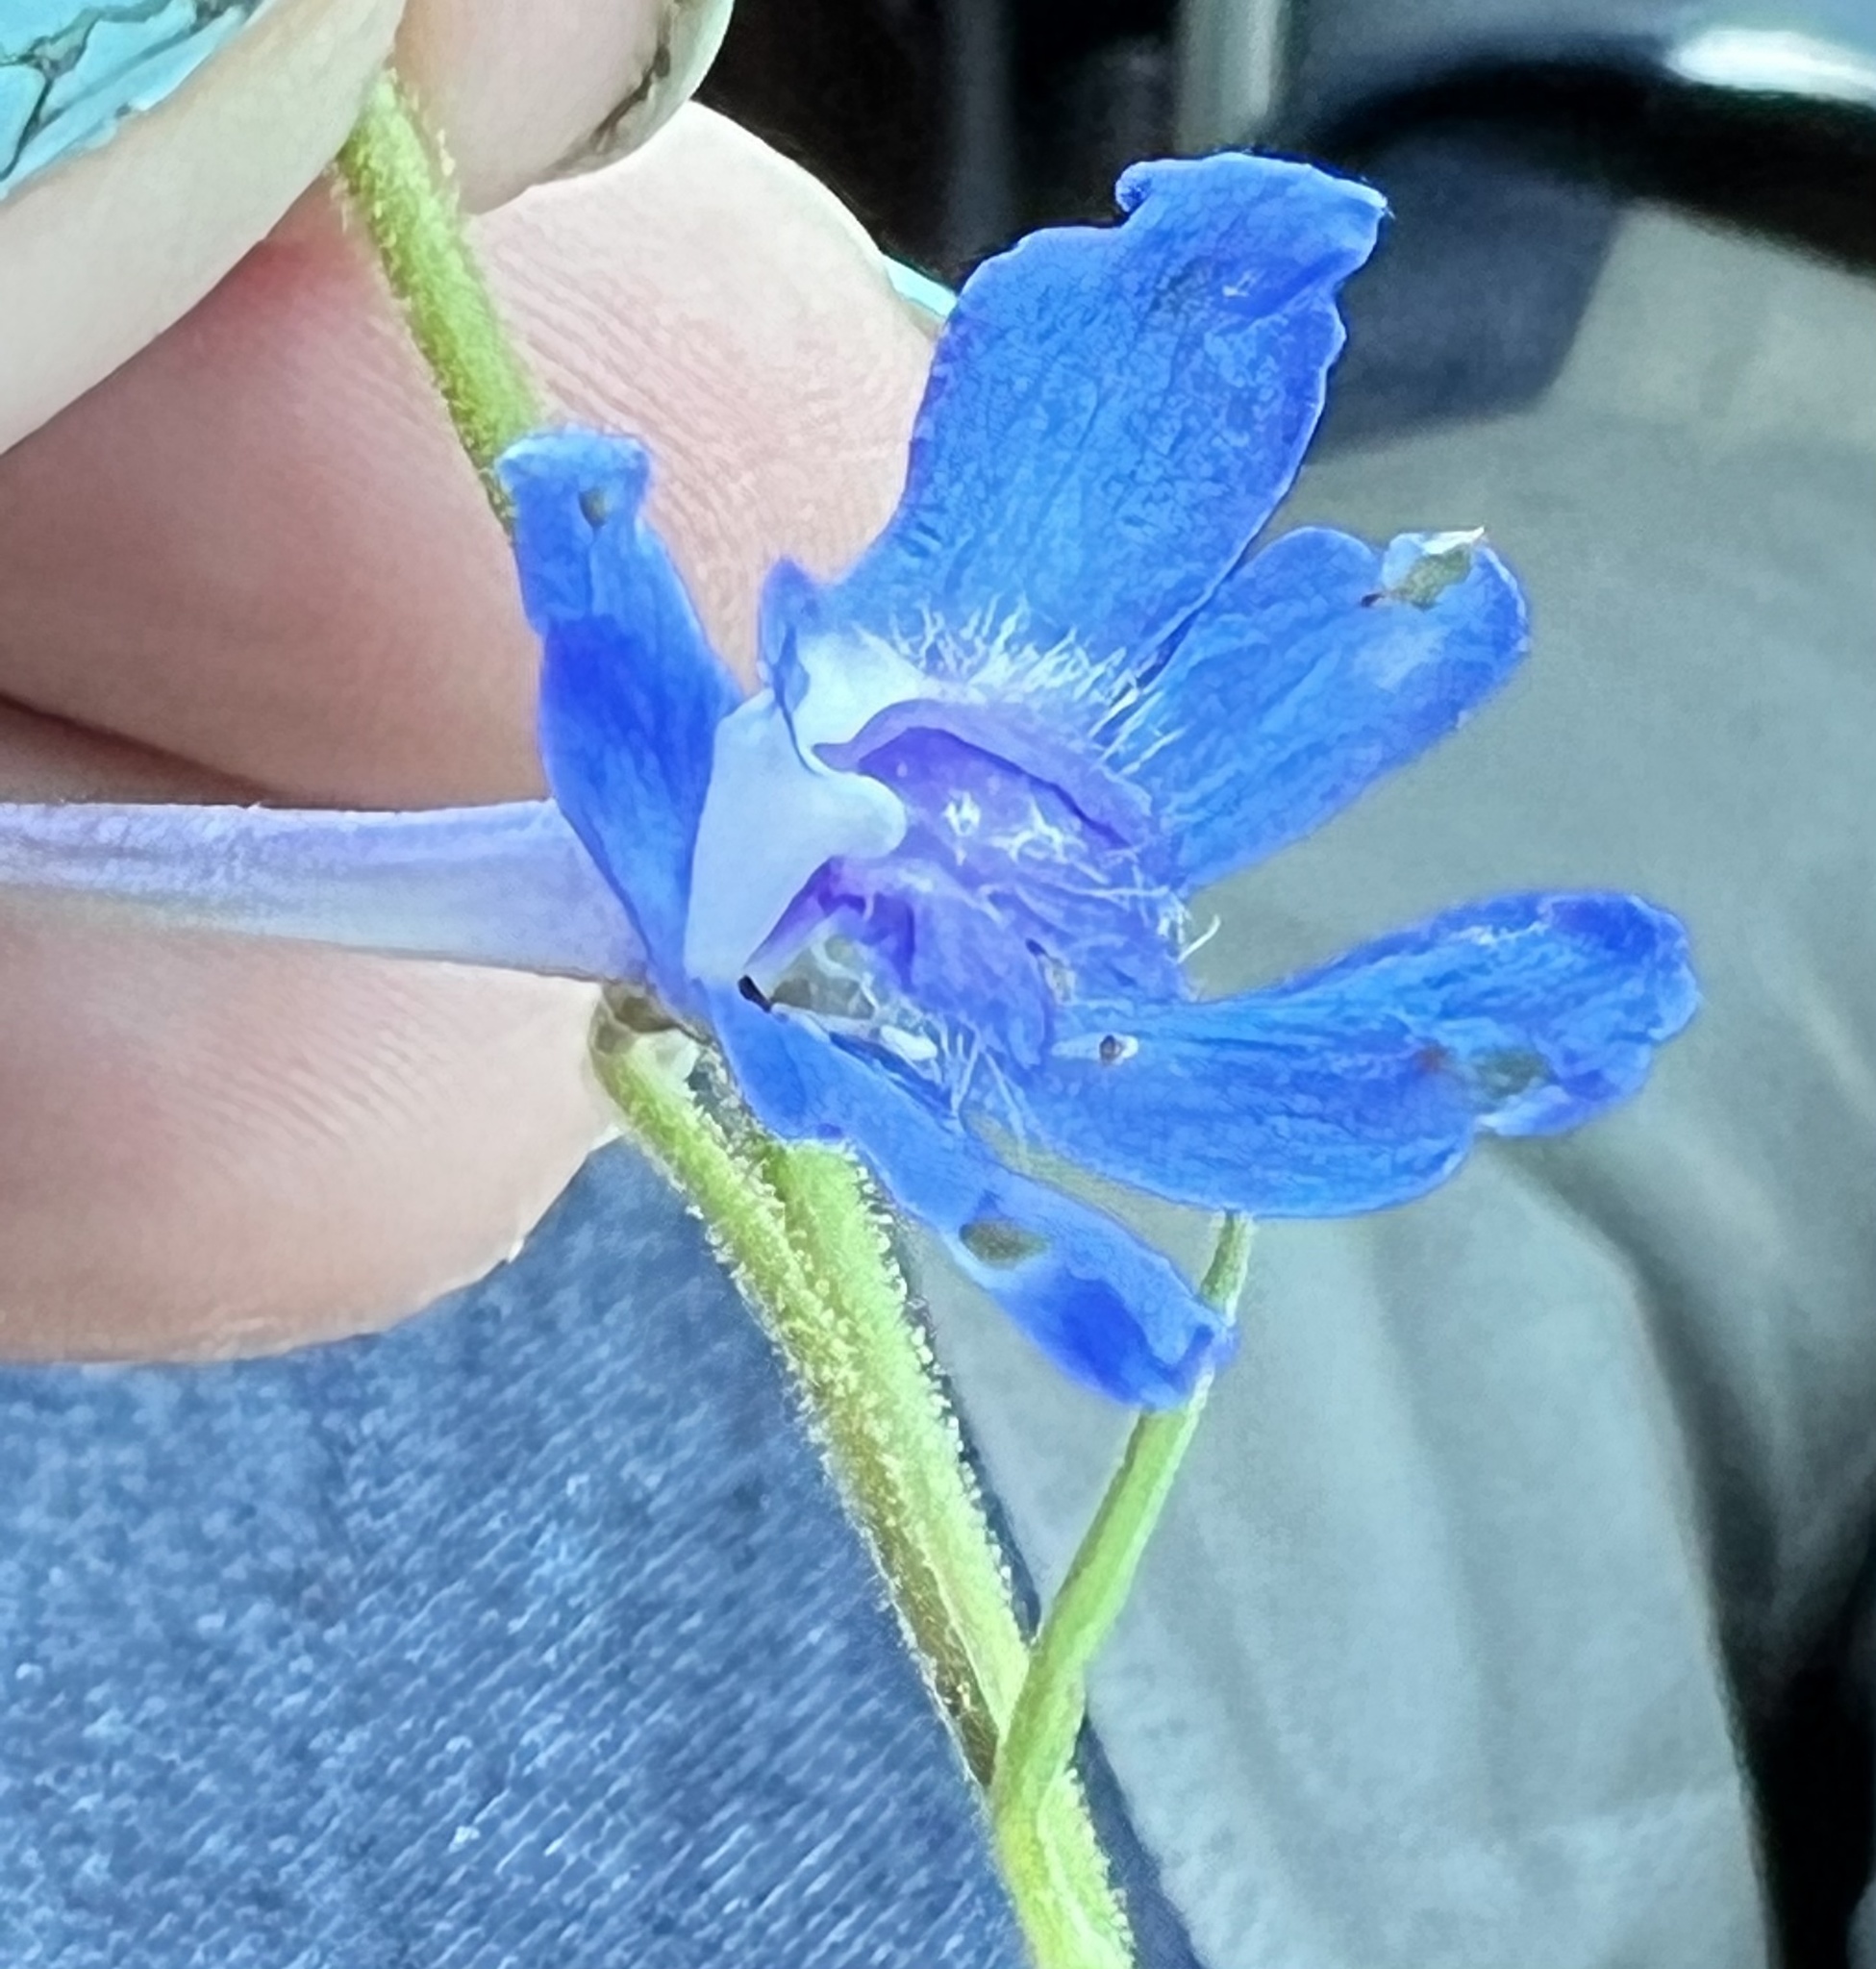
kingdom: Plantae
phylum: Tracheophyta
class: Magnoliopsida
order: Ranunculales
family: Ranunculaceae
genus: Delphinium
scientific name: Delphinium carolinianum
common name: Carolina larkspur
